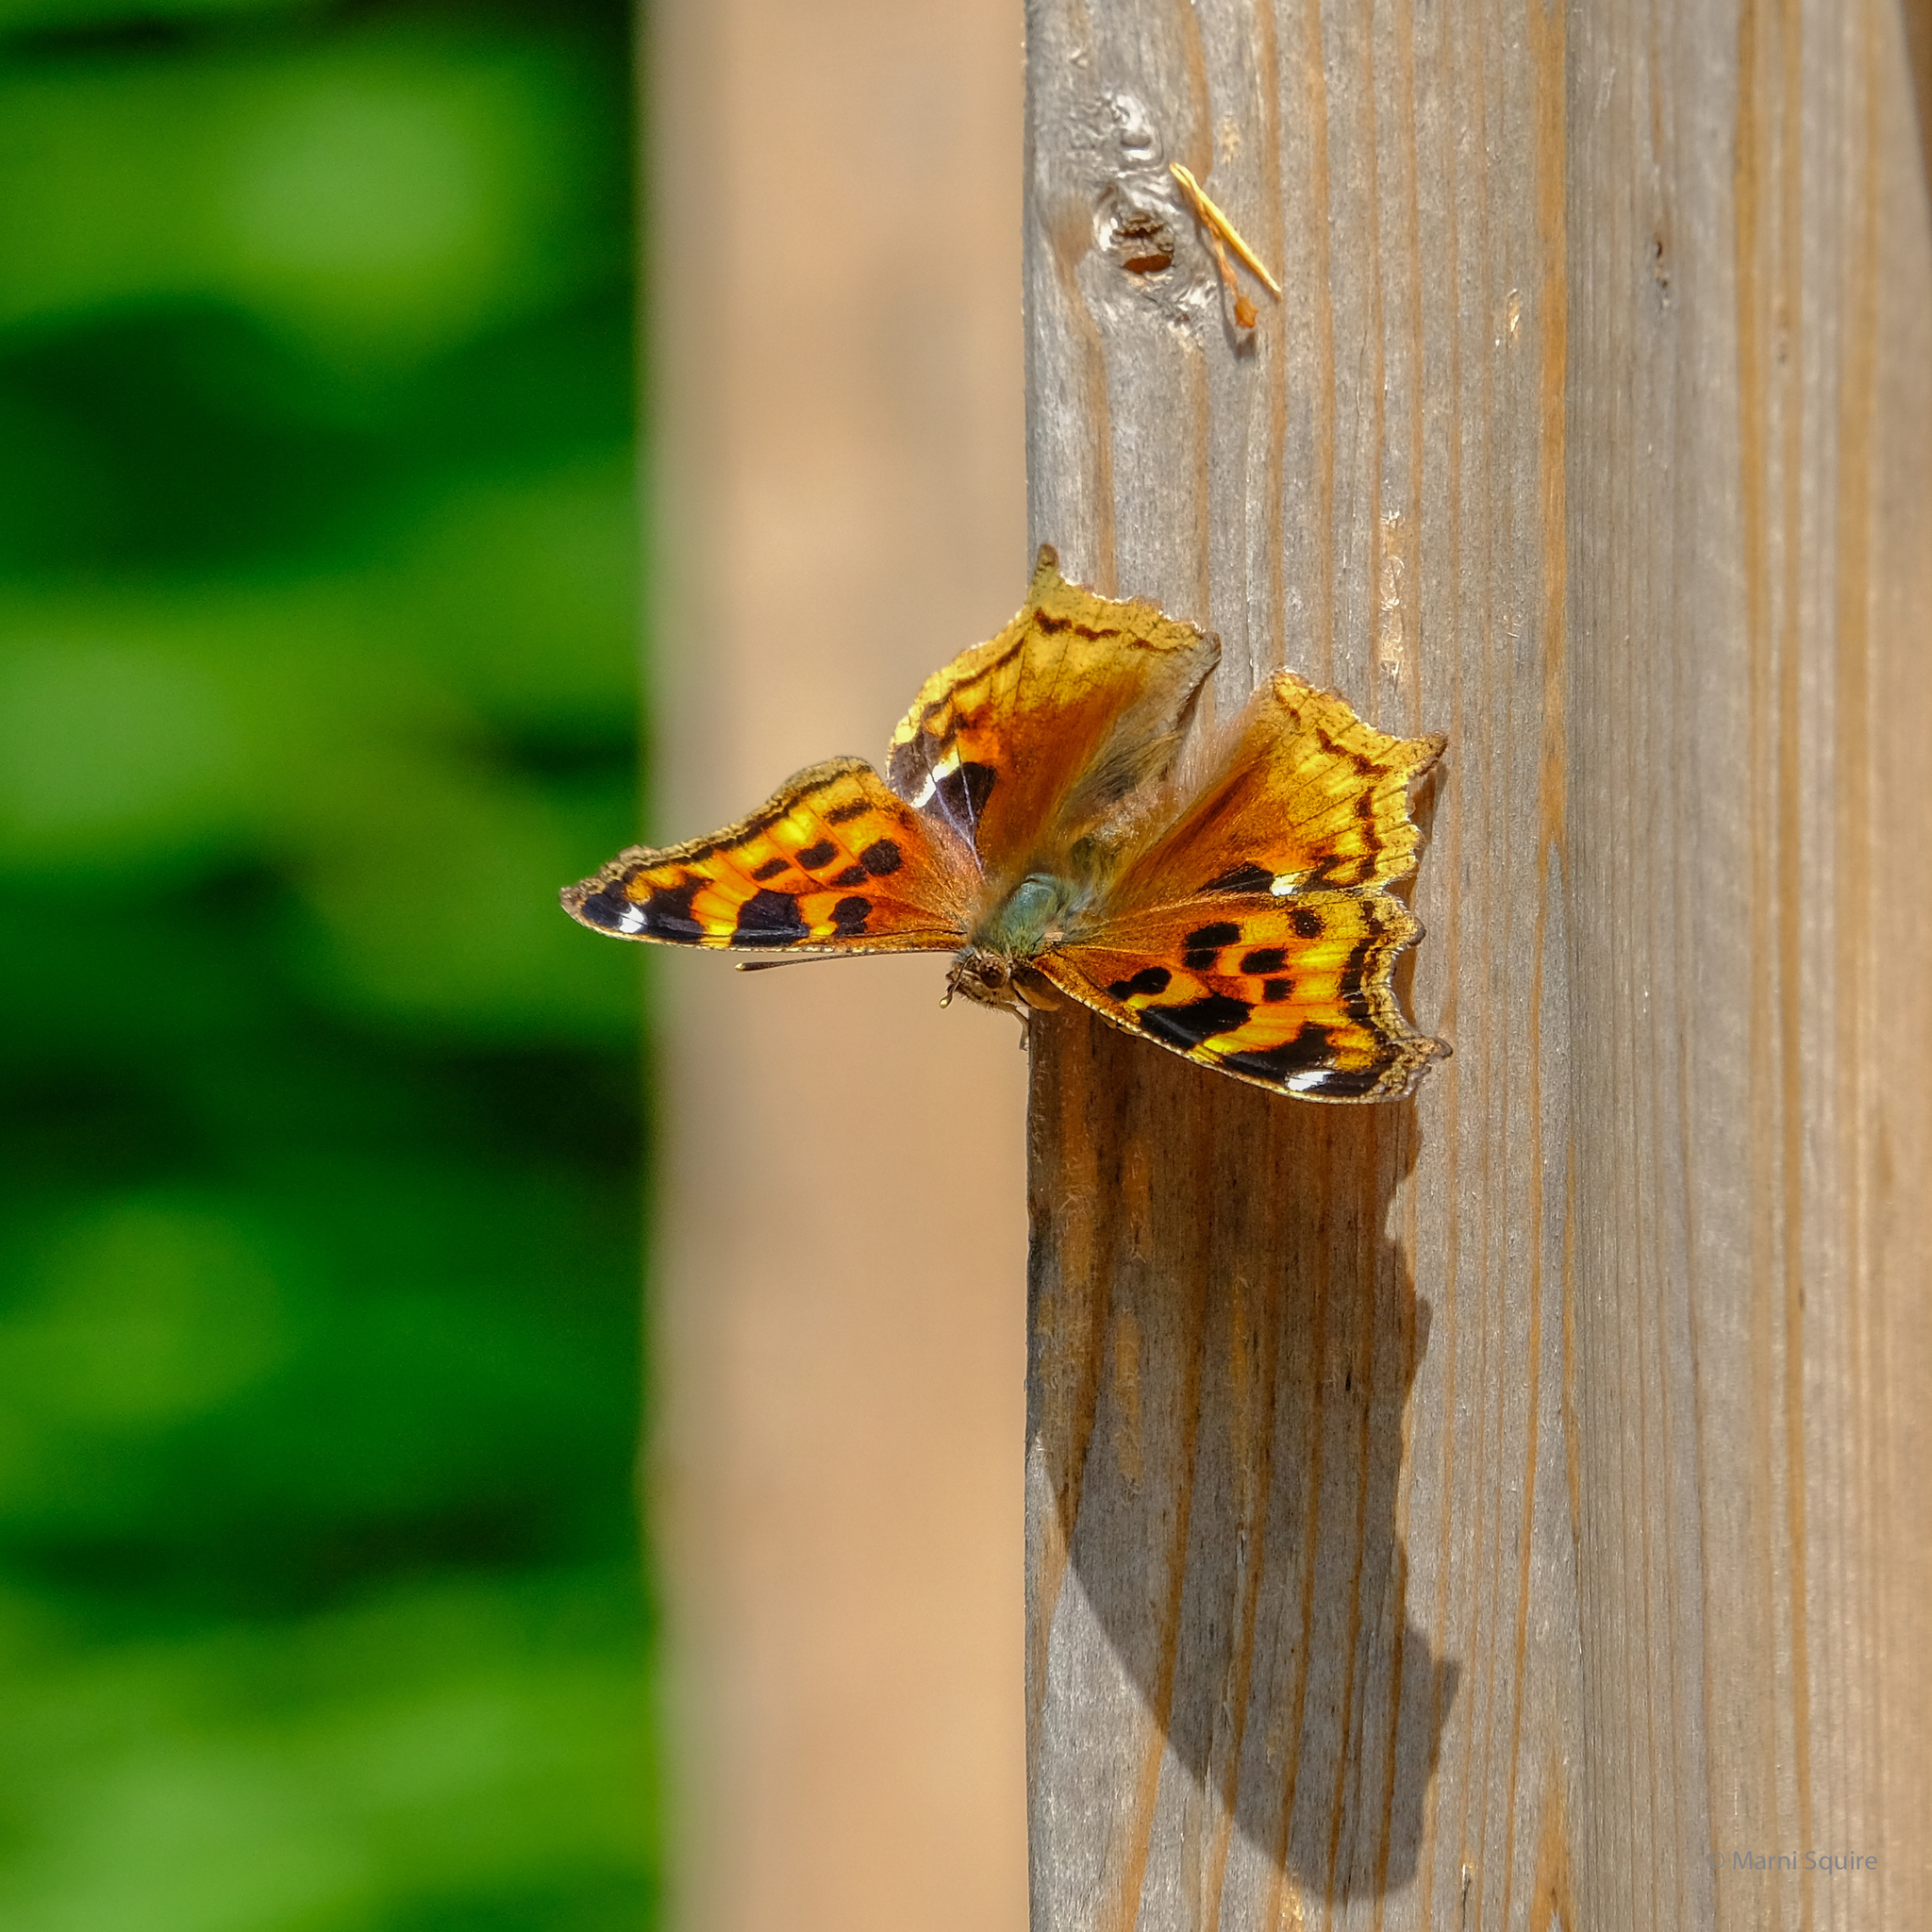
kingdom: Animalia
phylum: Arthropoda
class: Insecta
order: Lepidoptera
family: Nymphalidae
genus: Polygonia
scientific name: Polygonia vaualbum
